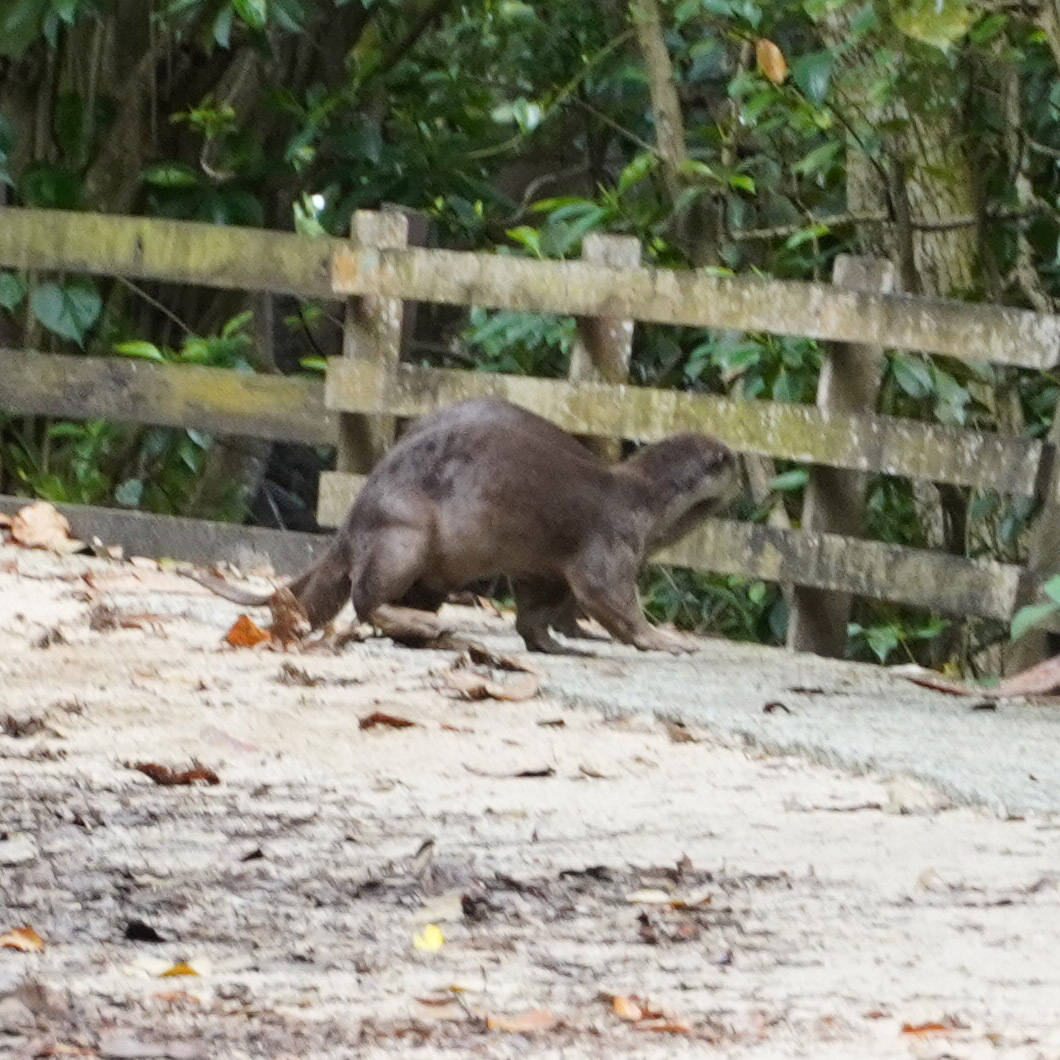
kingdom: Animalia
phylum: Chordata
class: Mammalia
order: Carnivora
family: Mustelidae
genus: Lutrogale
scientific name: Lutrogale perspicillata
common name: Smooth-coated otter
